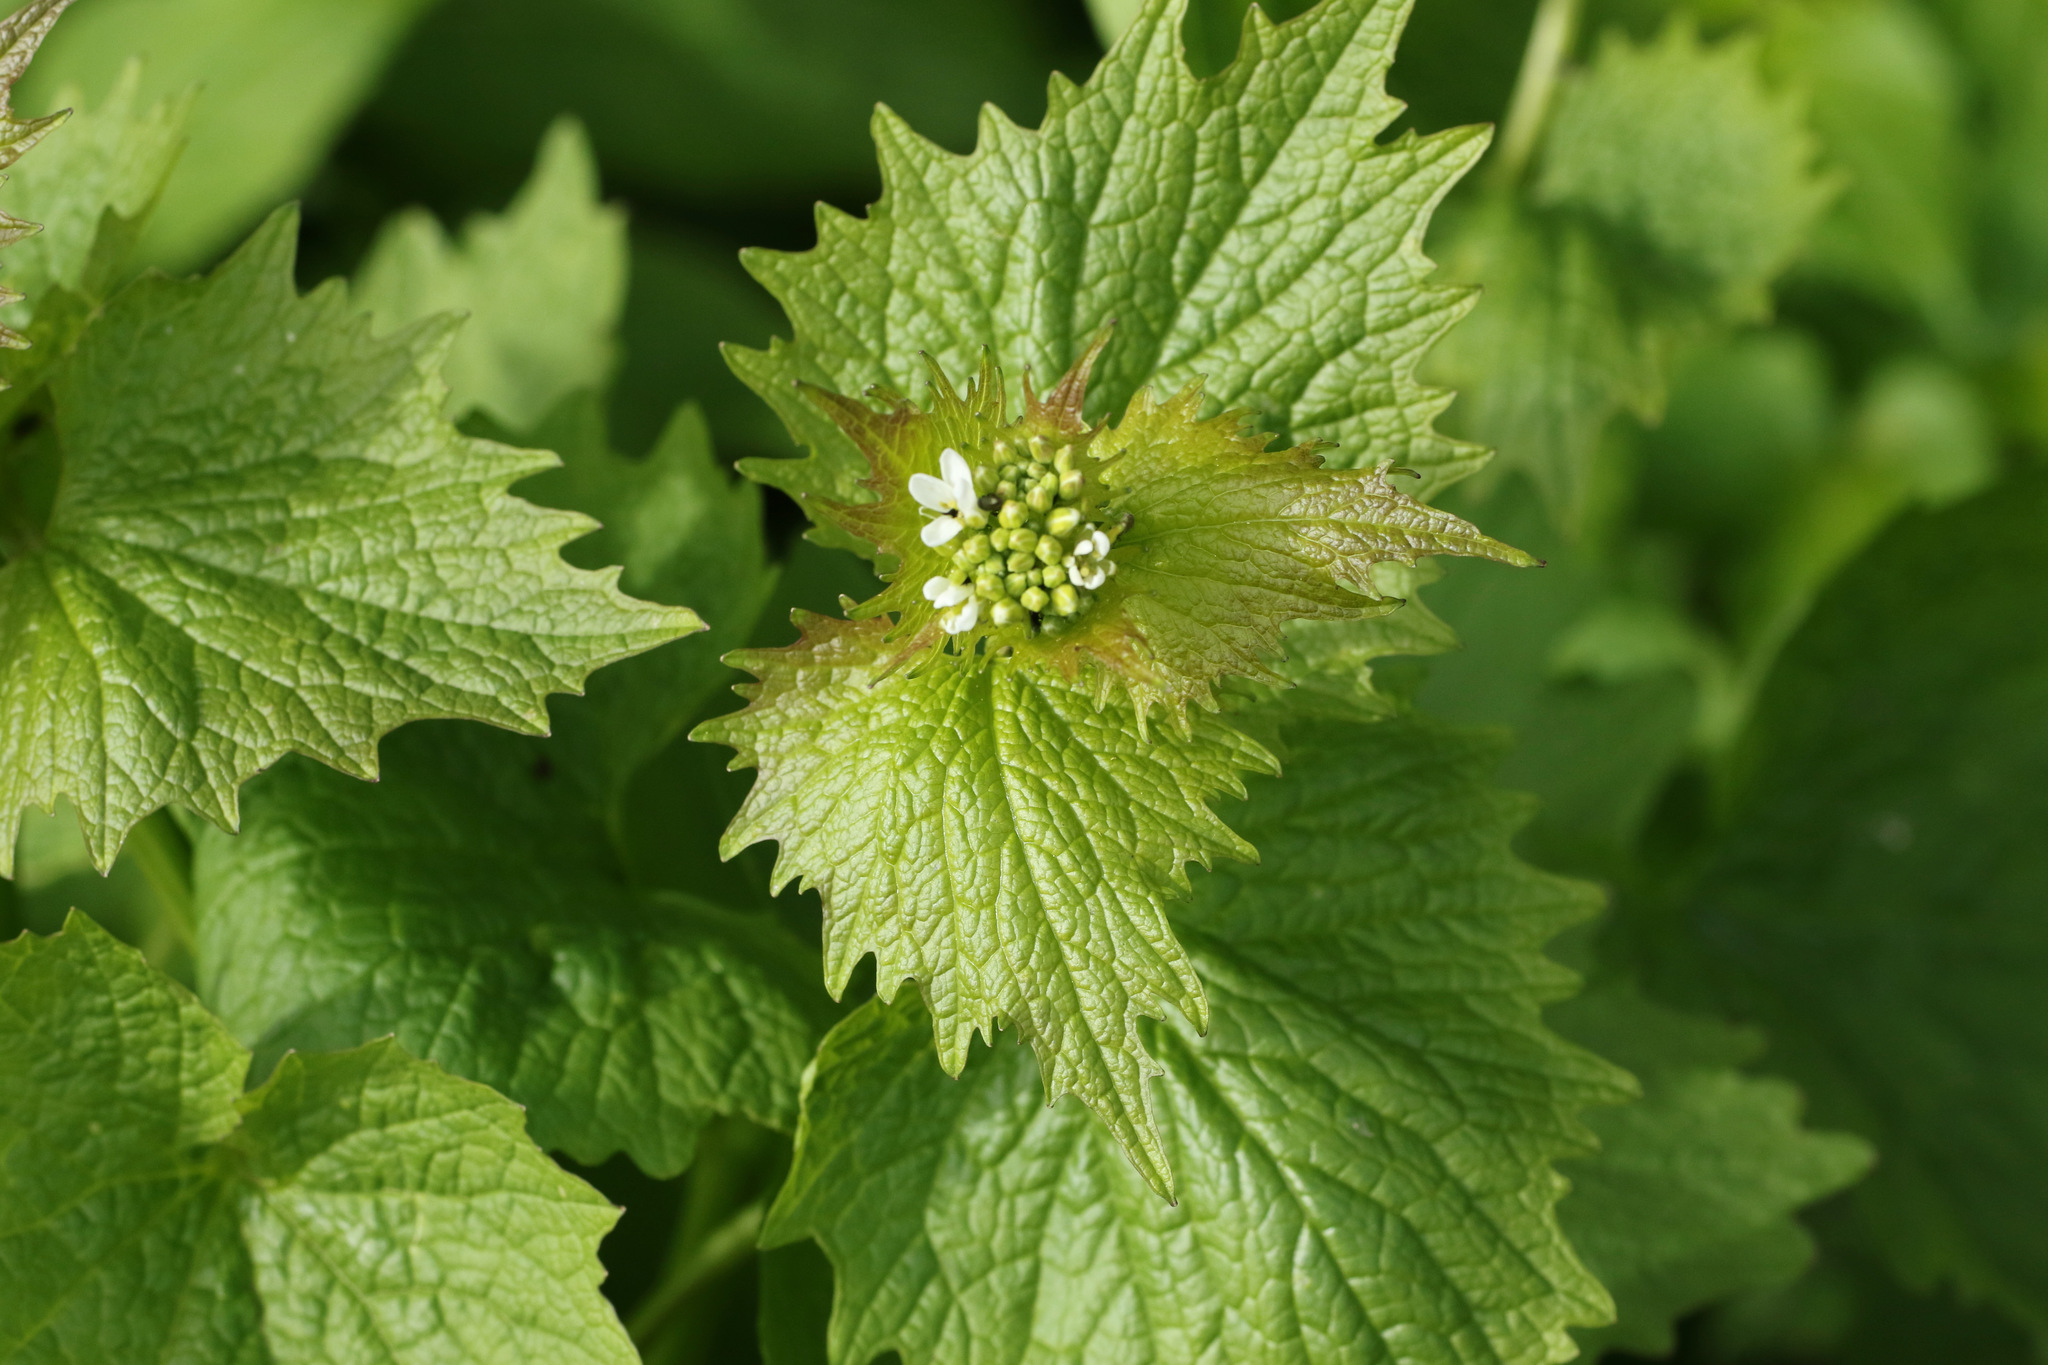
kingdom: Plantae
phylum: Tracheophyta
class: Magnoliopsida
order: Brassicales
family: Brassicaceae
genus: Alliaria
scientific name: Alliaria petiolata
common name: Garlic mustard
